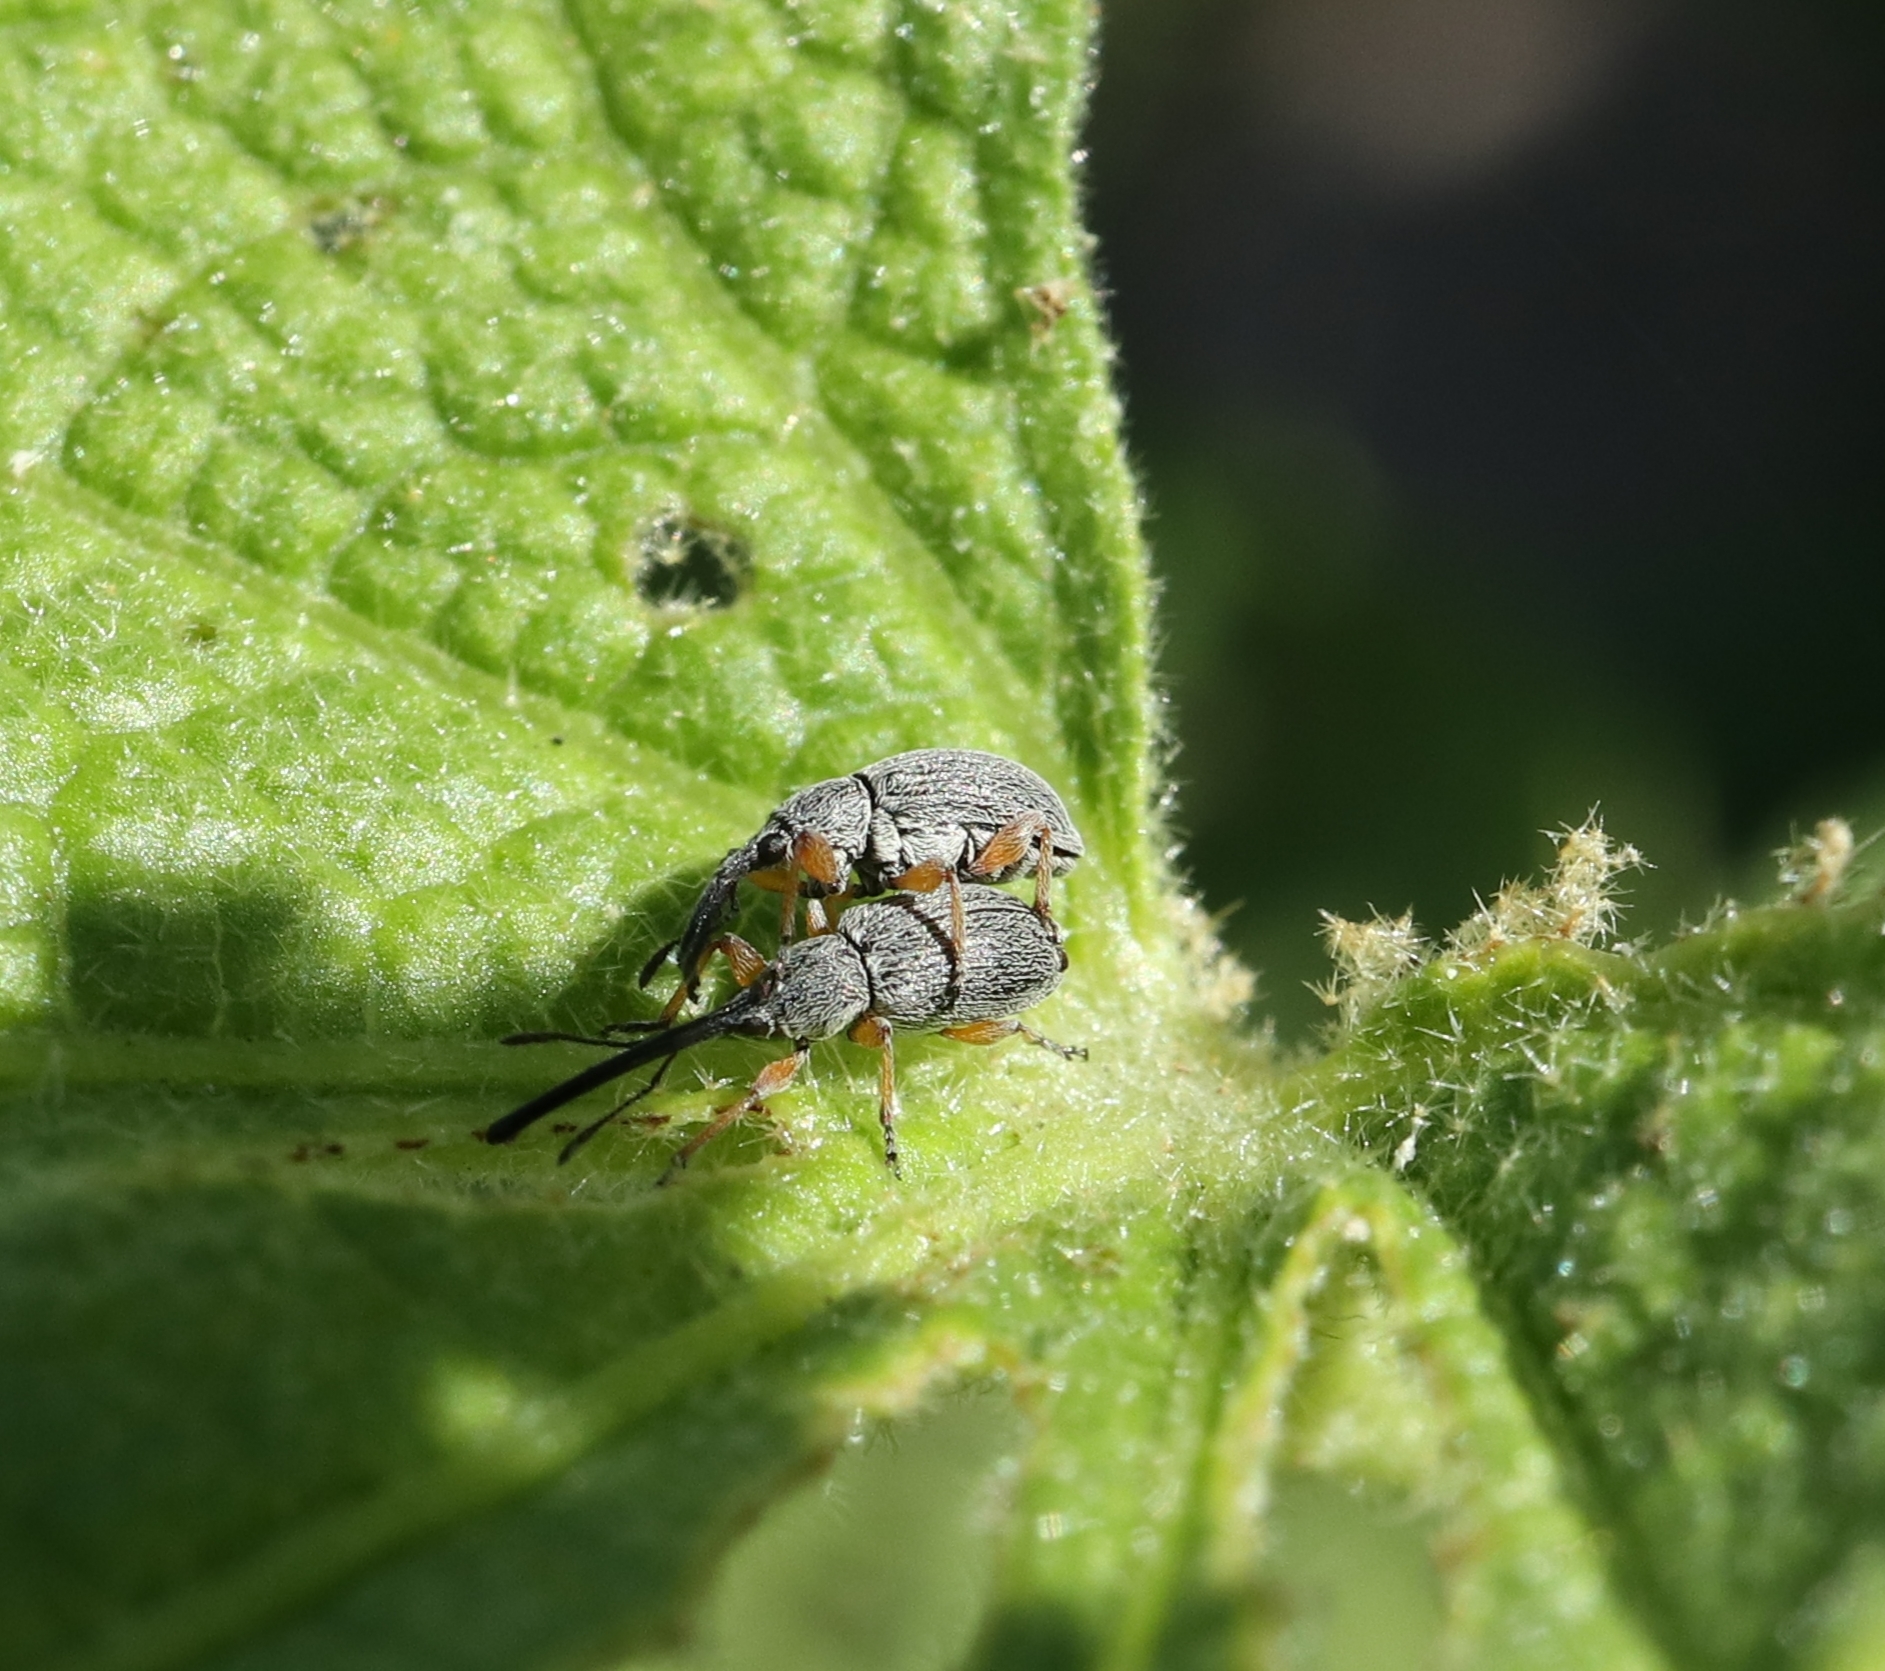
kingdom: Animalia
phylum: Arthropoda
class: Insecta
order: Coleoptera
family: Brentidae
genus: Rhopalapion
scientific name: Rhopalapion longirostre
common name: Hollyhock weevil
